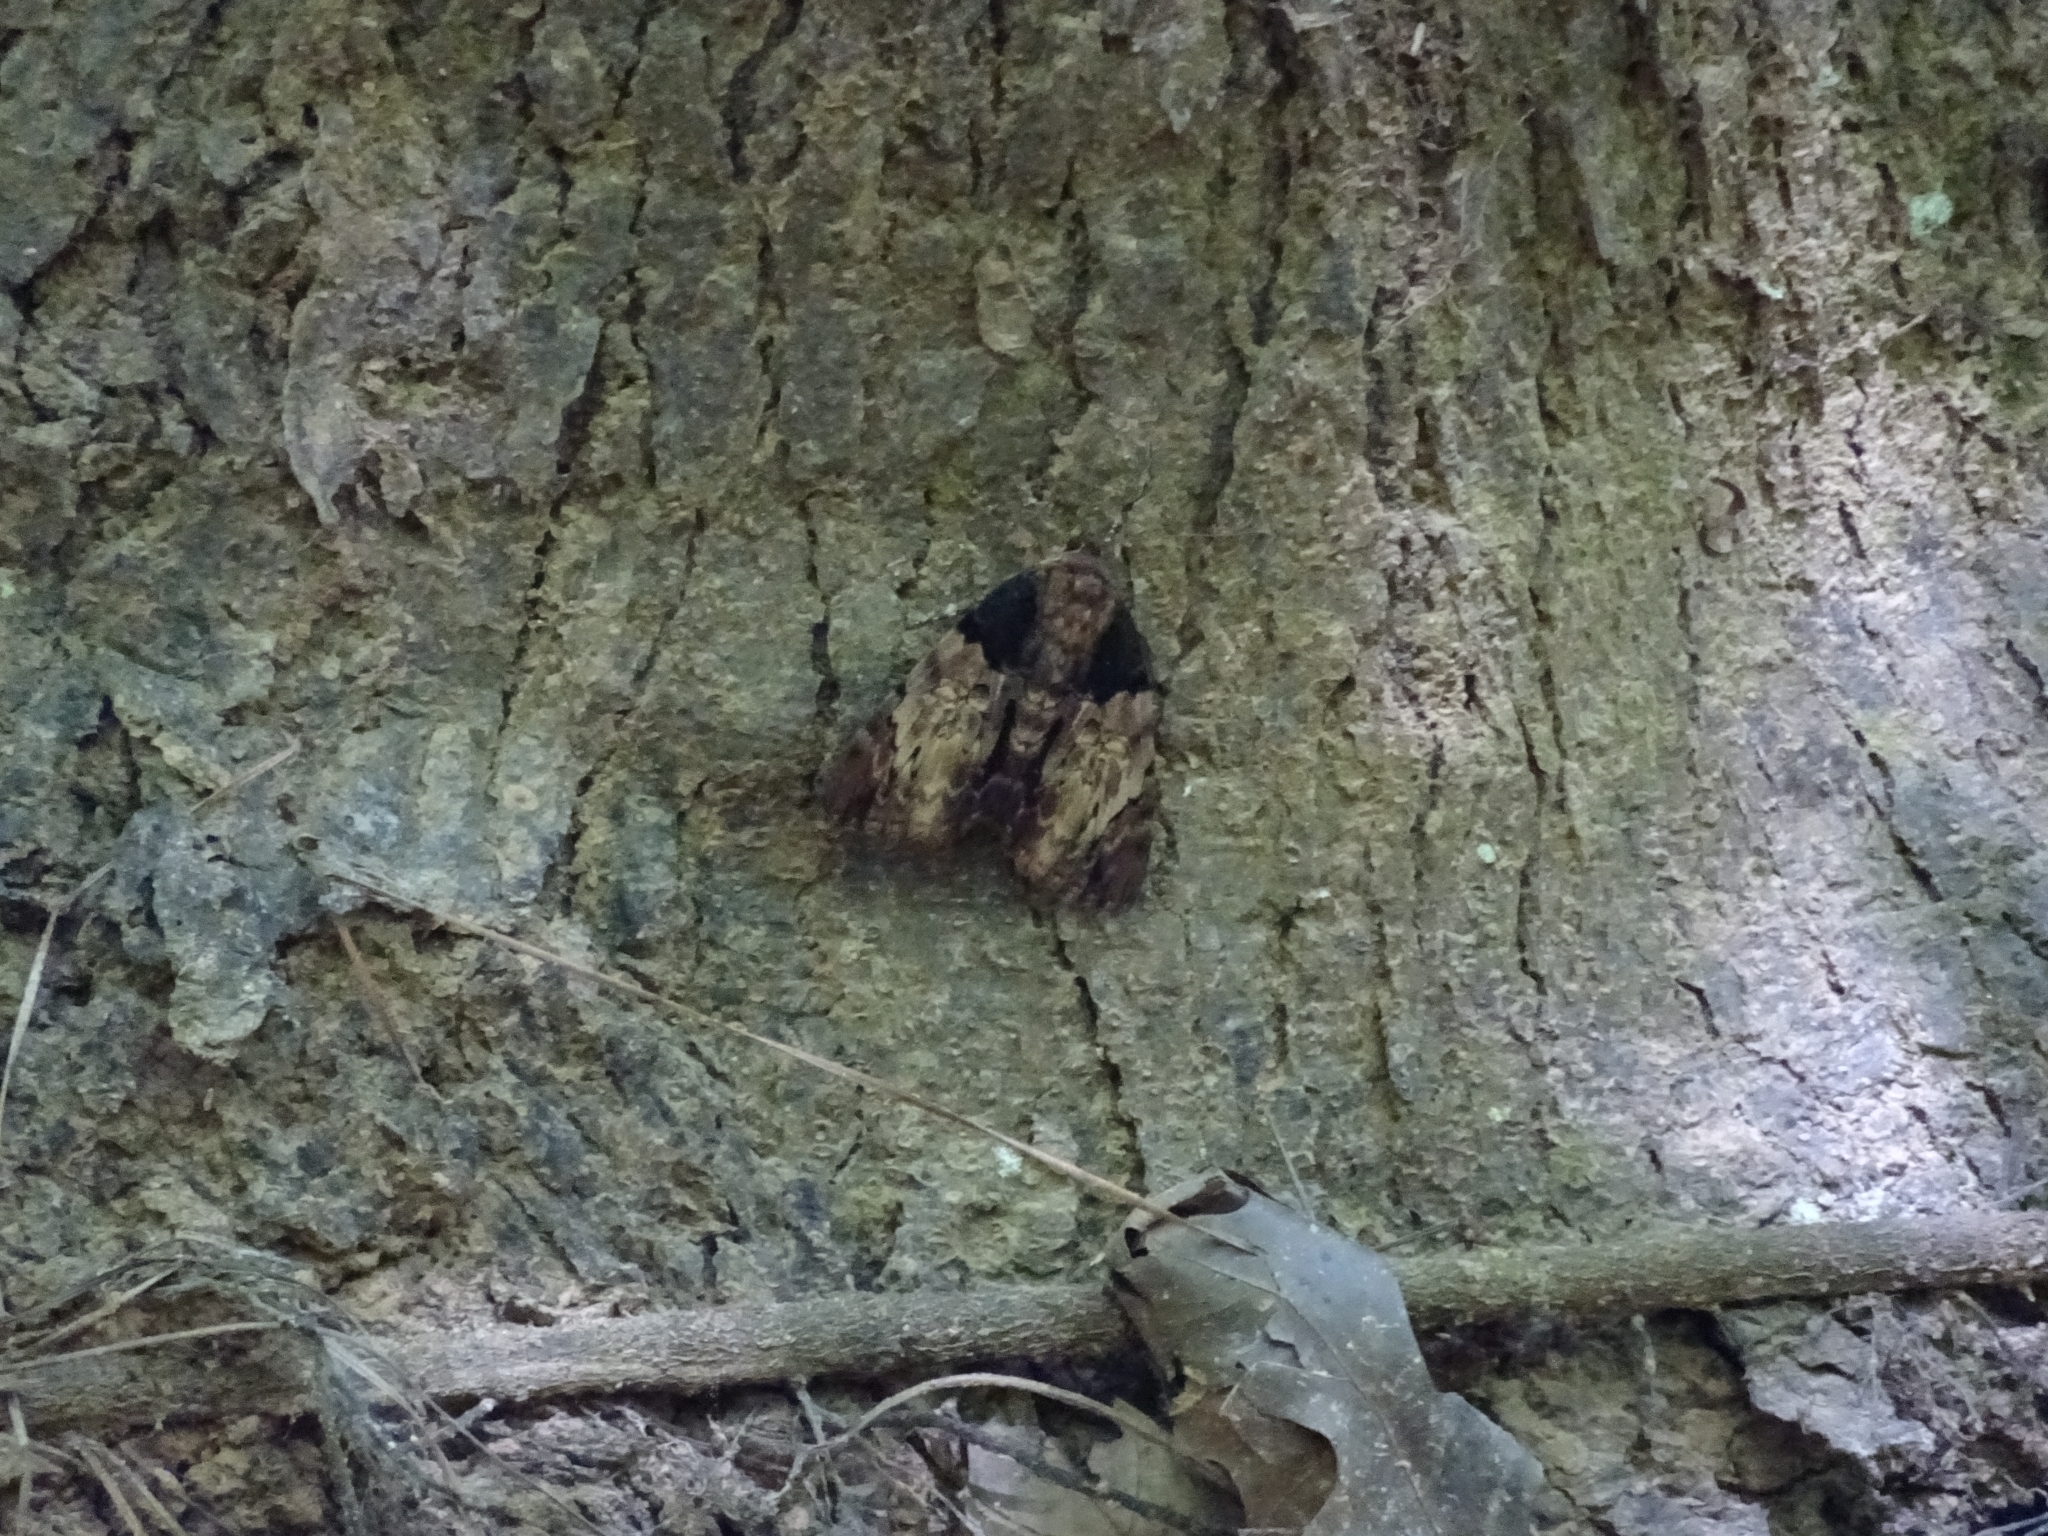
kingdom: Animalia
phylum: Arthropoda
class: Insecta
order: Lepidoptera
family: Erebidae
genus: Catocala
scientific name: Catocala nebulosa
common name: Clouded underwing
